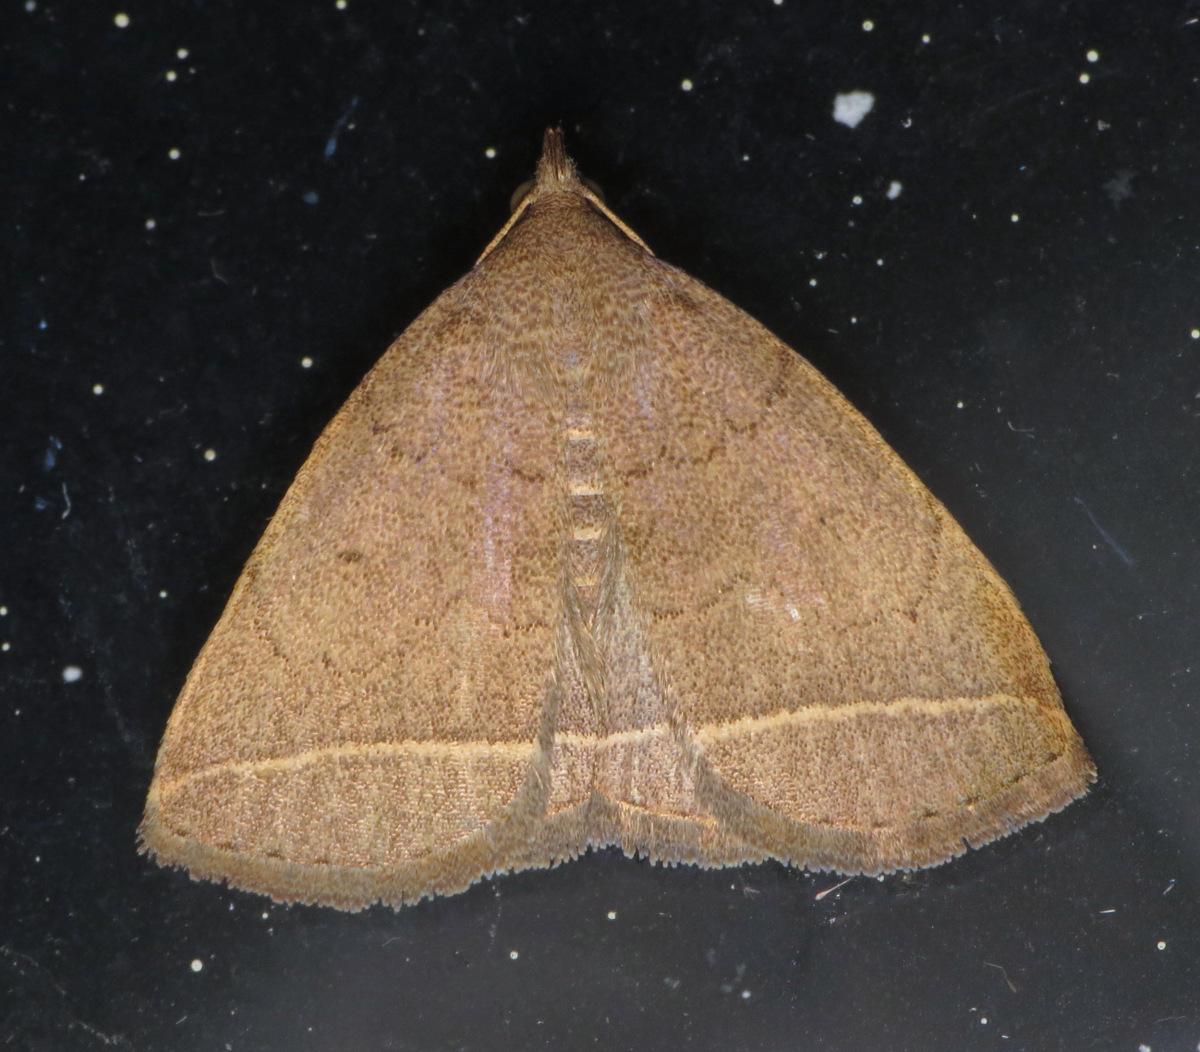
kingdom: Animalia
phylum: Arthropoda
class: Insecta
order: Lepidoptera
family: Erebidae
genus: Zanclognatha
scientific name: Zanclognatha marcidilinea
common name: Yellowish fan-foot
